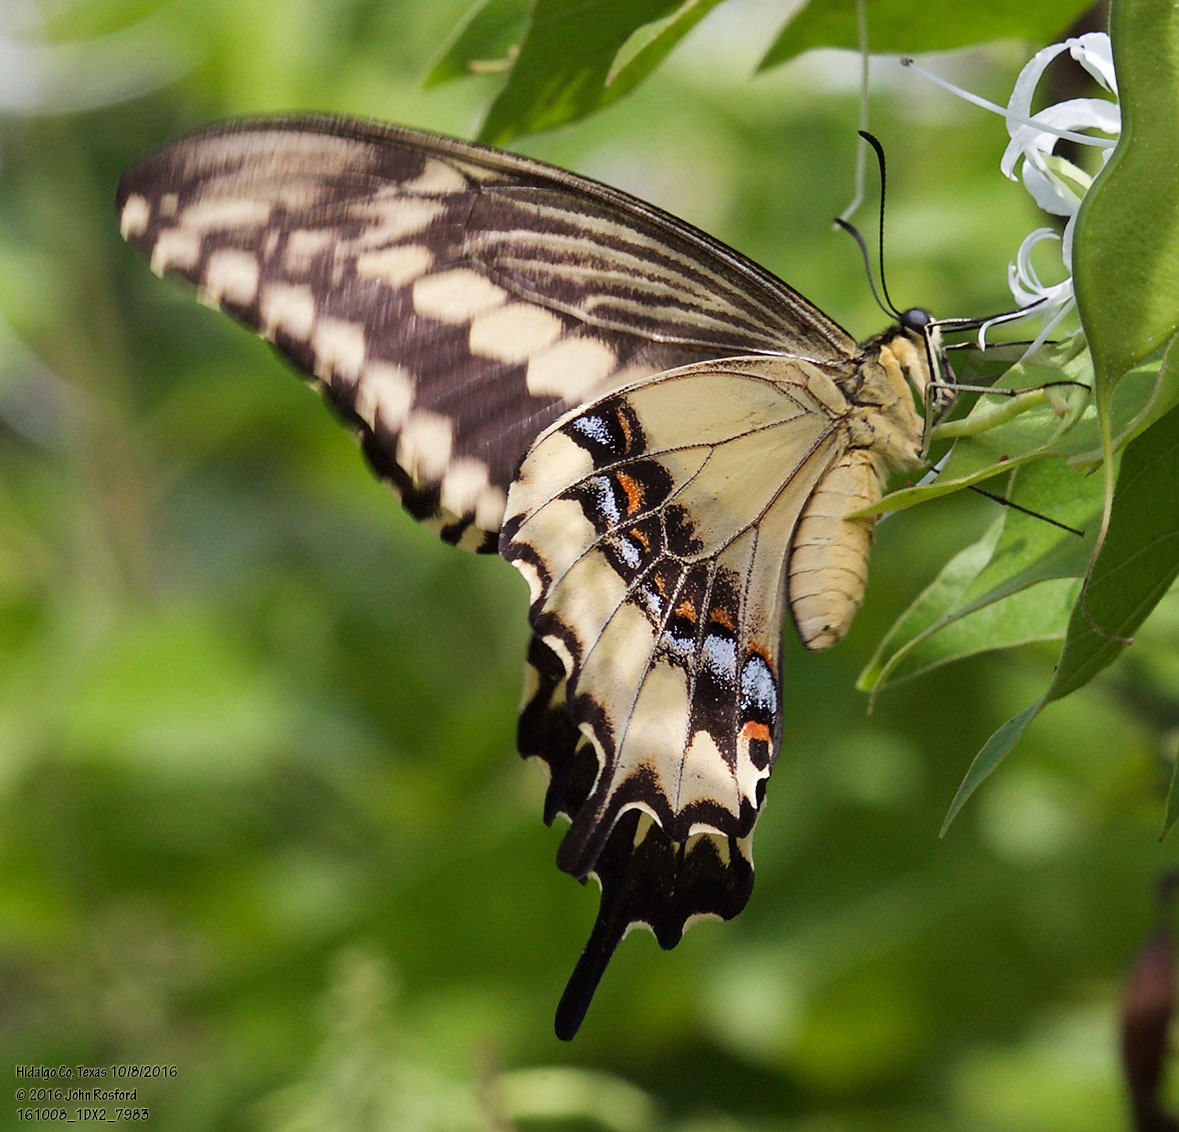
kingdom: Animalia
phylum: Arthropoda
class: Insecta
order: Lepidoptera
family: Papilionidae
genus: Papilio
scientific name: Papilio ornythion
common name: Ornythion swallowtail
